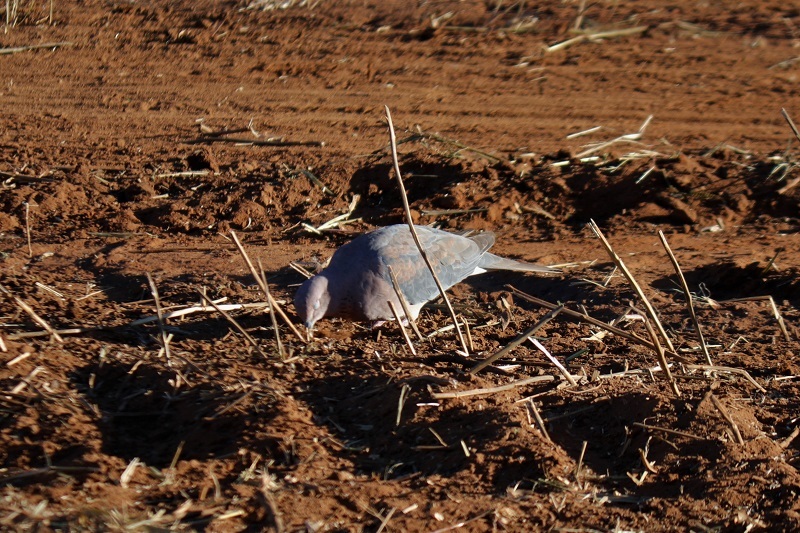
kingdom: Animalia
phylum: Chordata
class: Aves
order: Columbiformes
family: Columbidae
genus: Spilopelia
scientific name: Spilopelia senegalensis
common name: Laughing dove
